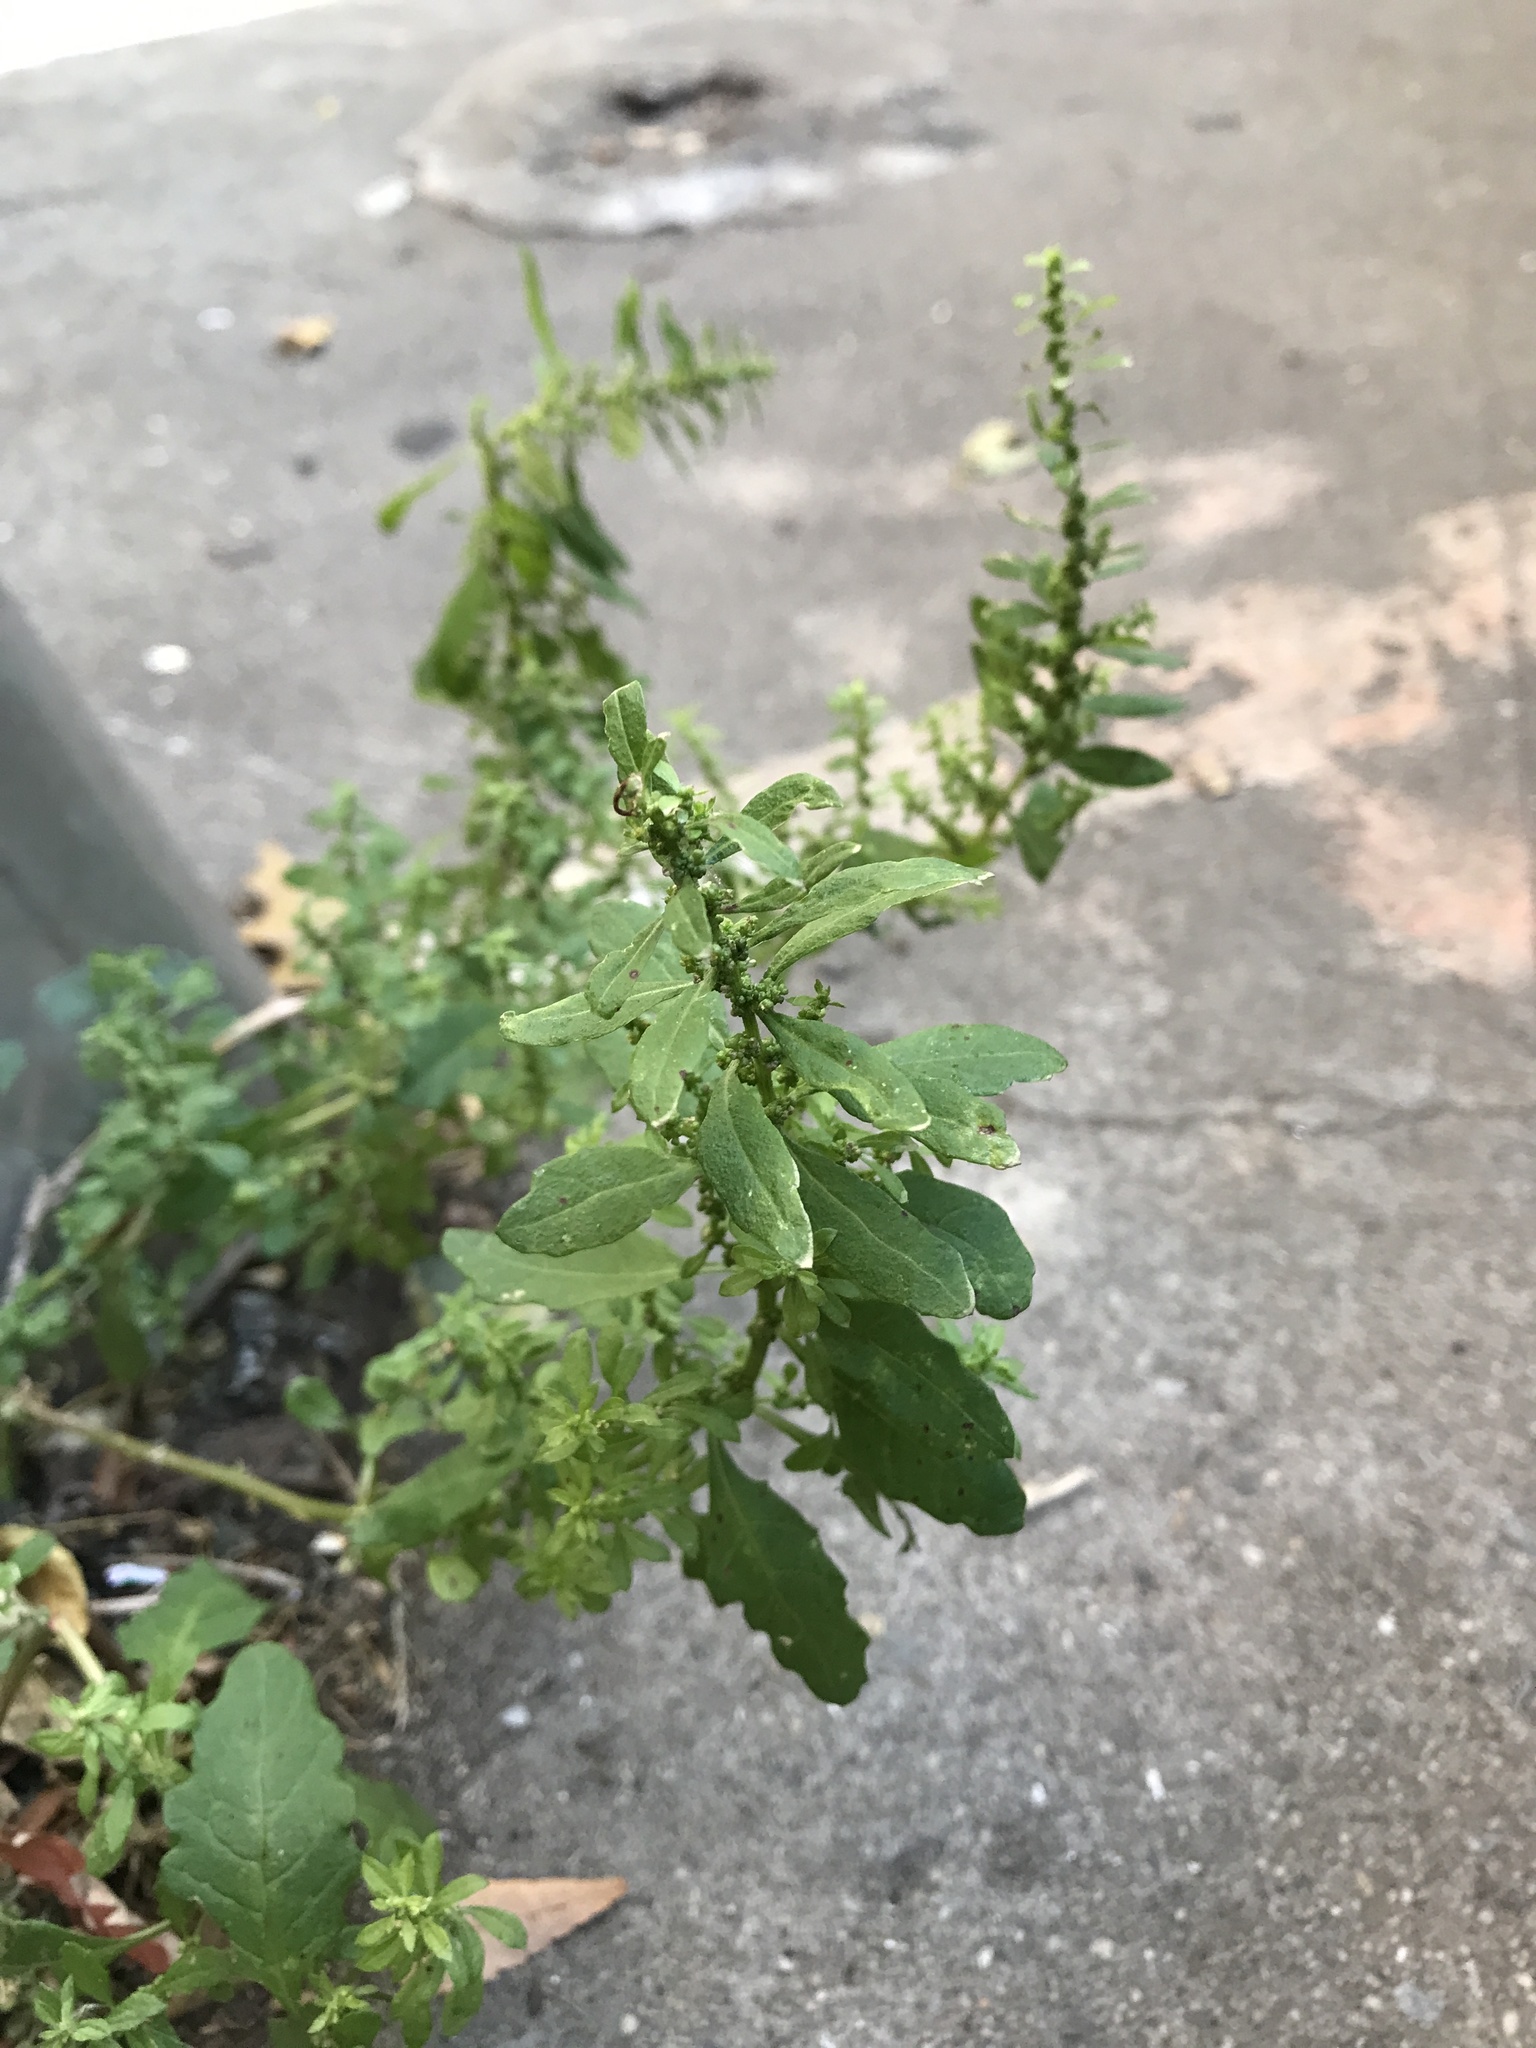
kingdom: Plantae
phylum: Tracheophyta
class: Magnoliopsida
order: Caryophyllales
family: Amaranthaceae
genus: Dysphania
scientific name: Dysphania ambrosioides
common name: Wormseed
